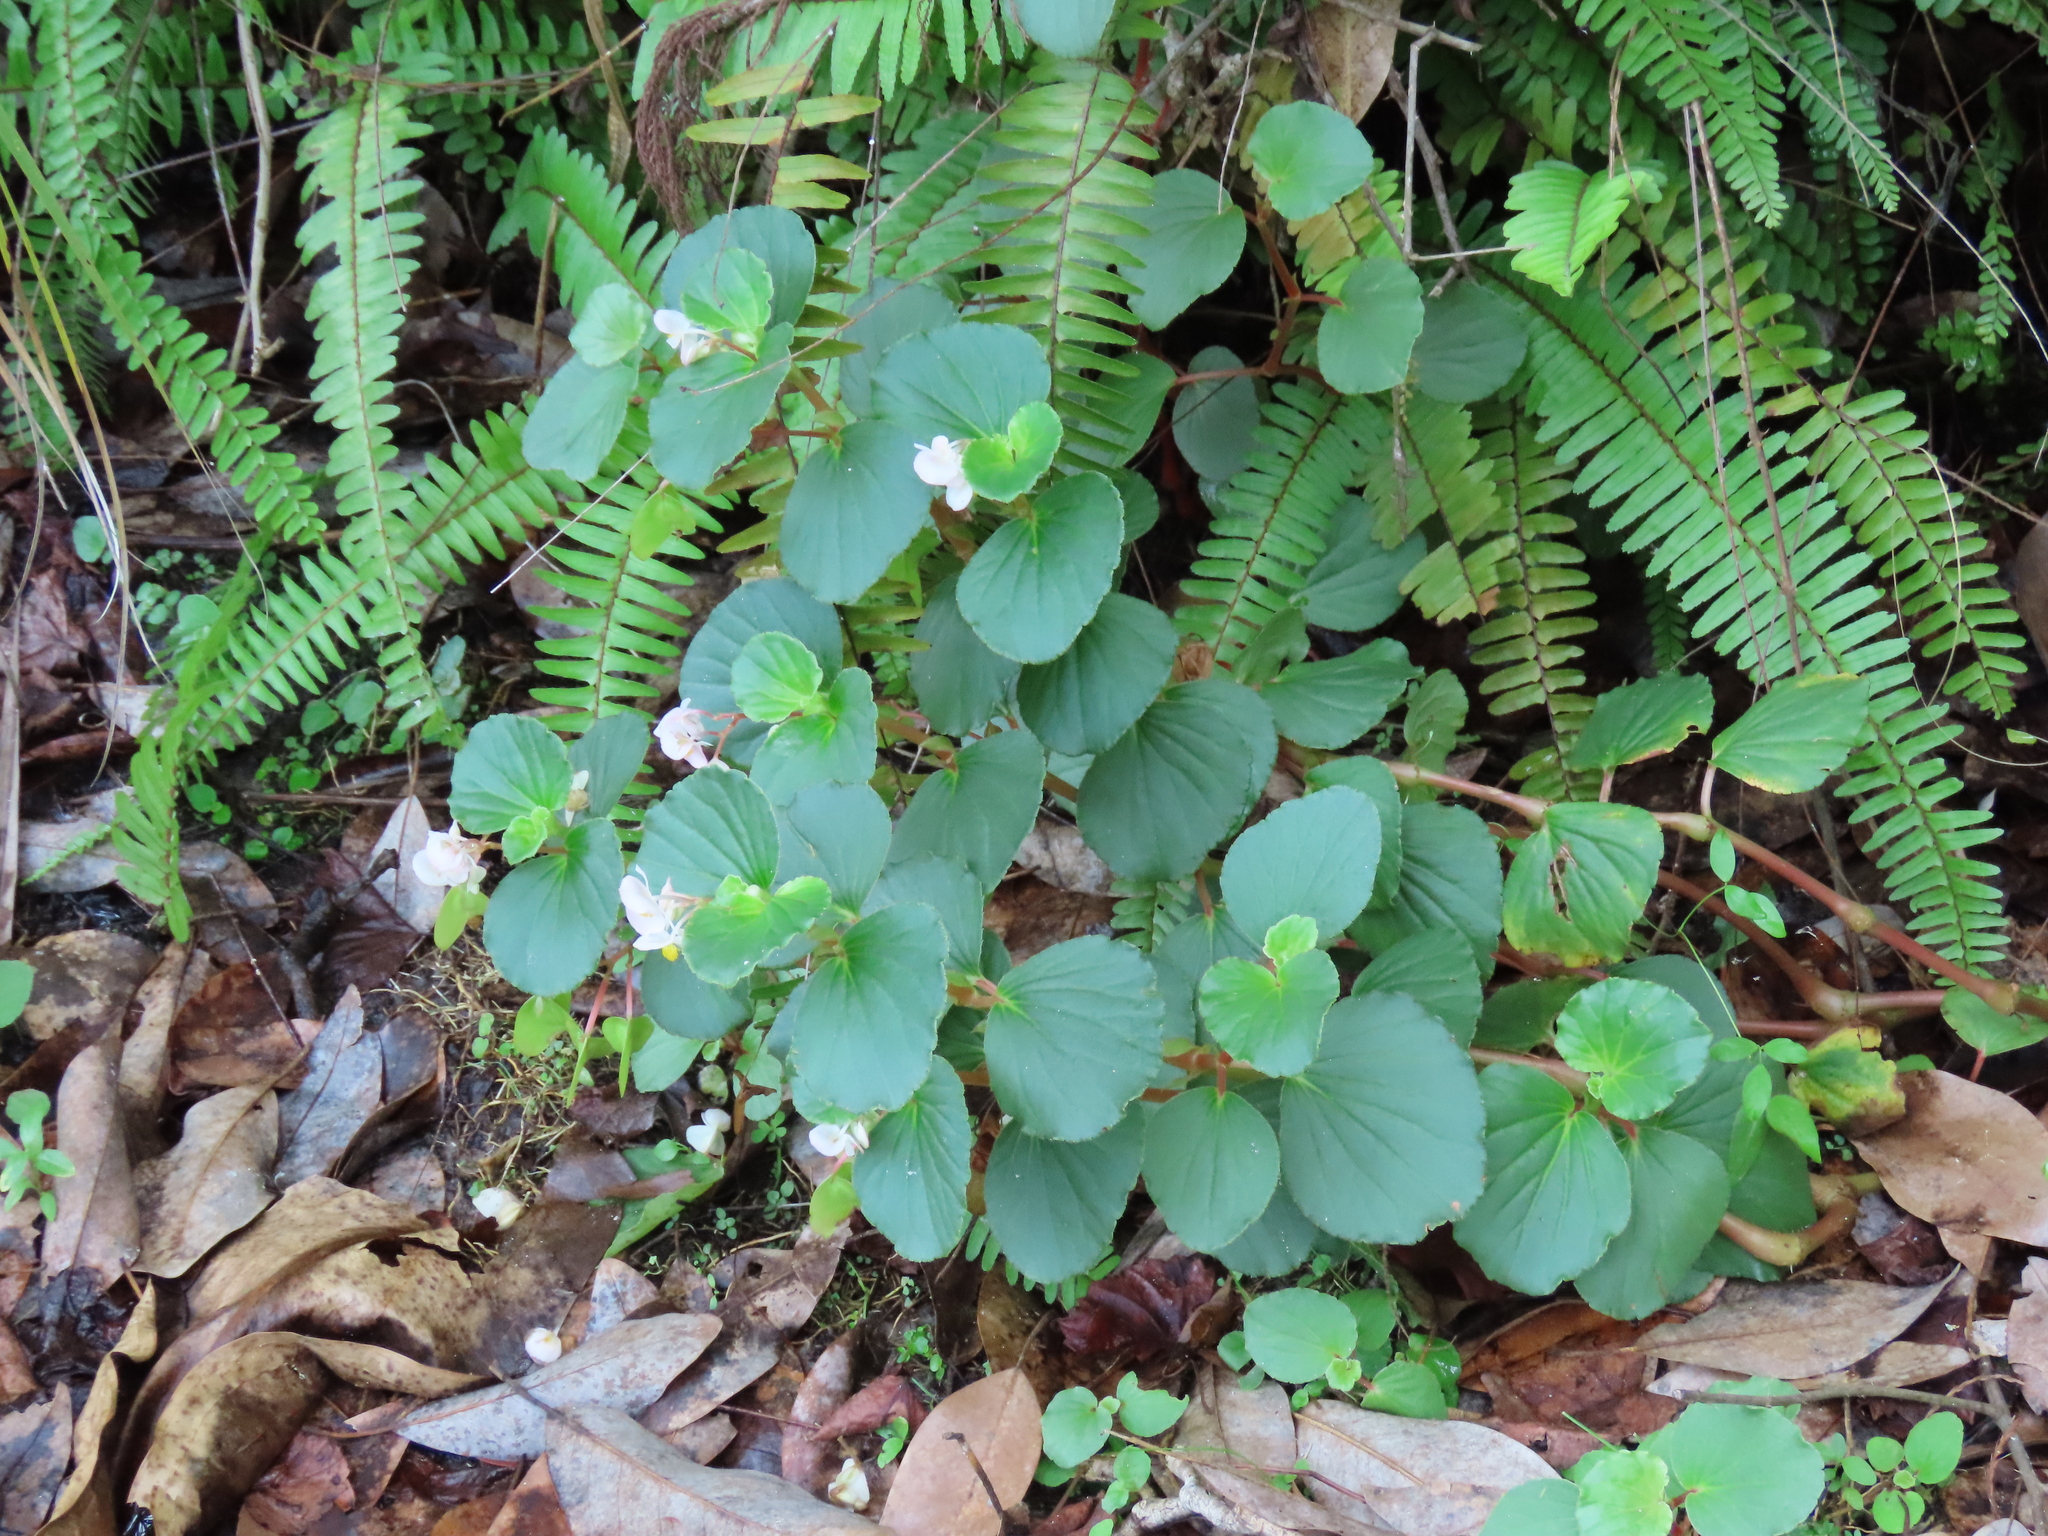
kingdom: Plantae
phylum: Tracheophyta
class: Magnoliopsida
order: Cucurbitales
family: Begoniaceae
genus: Begonia
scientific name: Begonia cucullata
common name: Clubbed begonia
